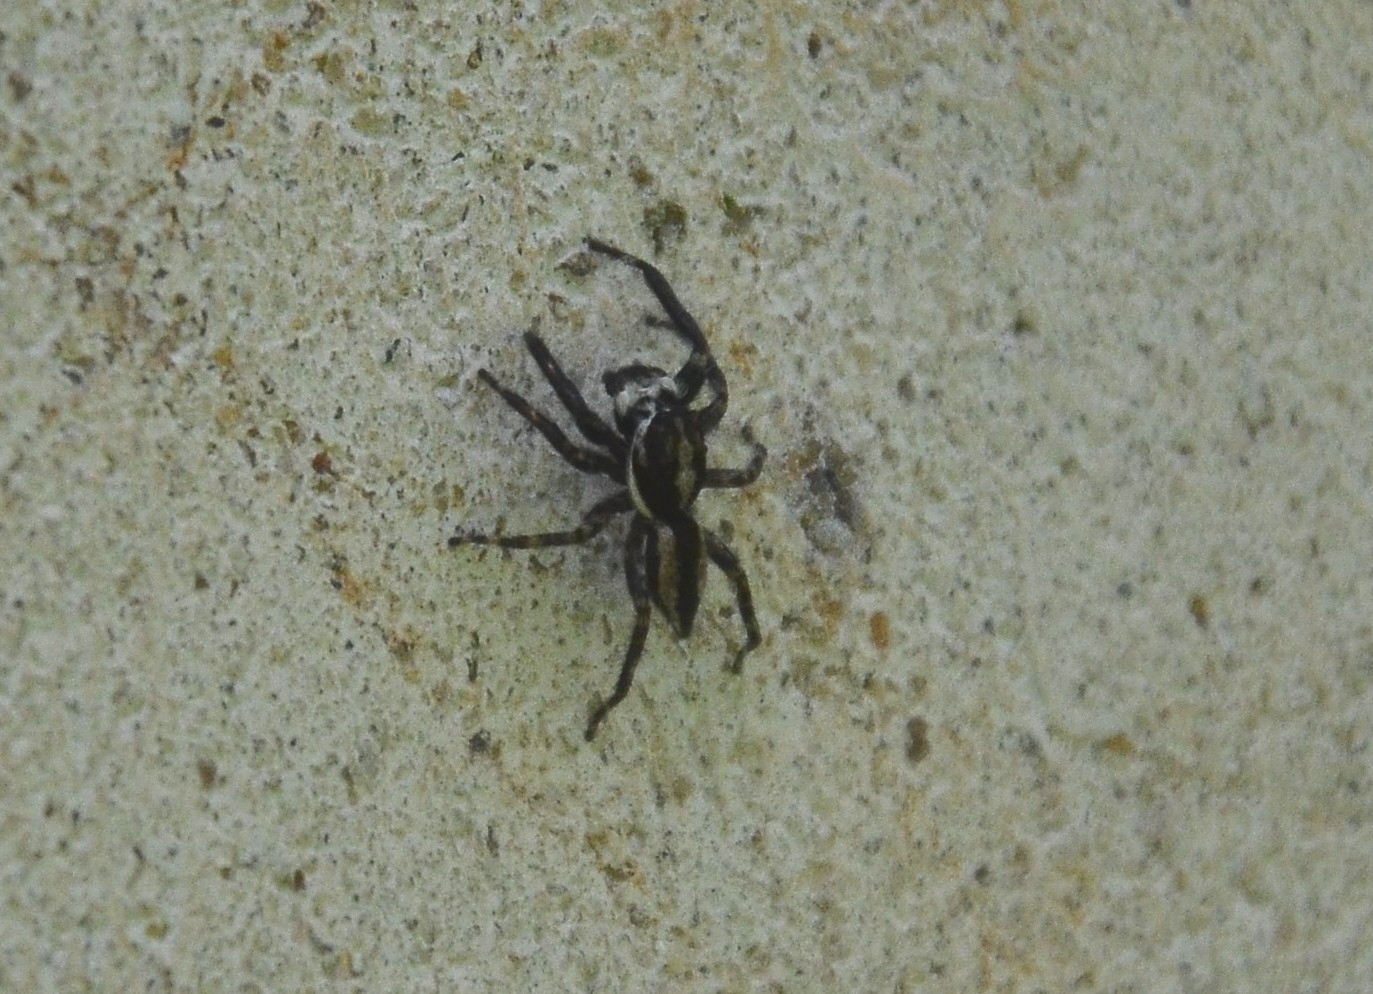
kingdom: Animalia
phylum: Arthropoda
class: Arachnida
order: Araneae
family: Salticidae
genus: Menemerus
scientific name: Menemerus bivittatus
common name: Gray wall jumper
